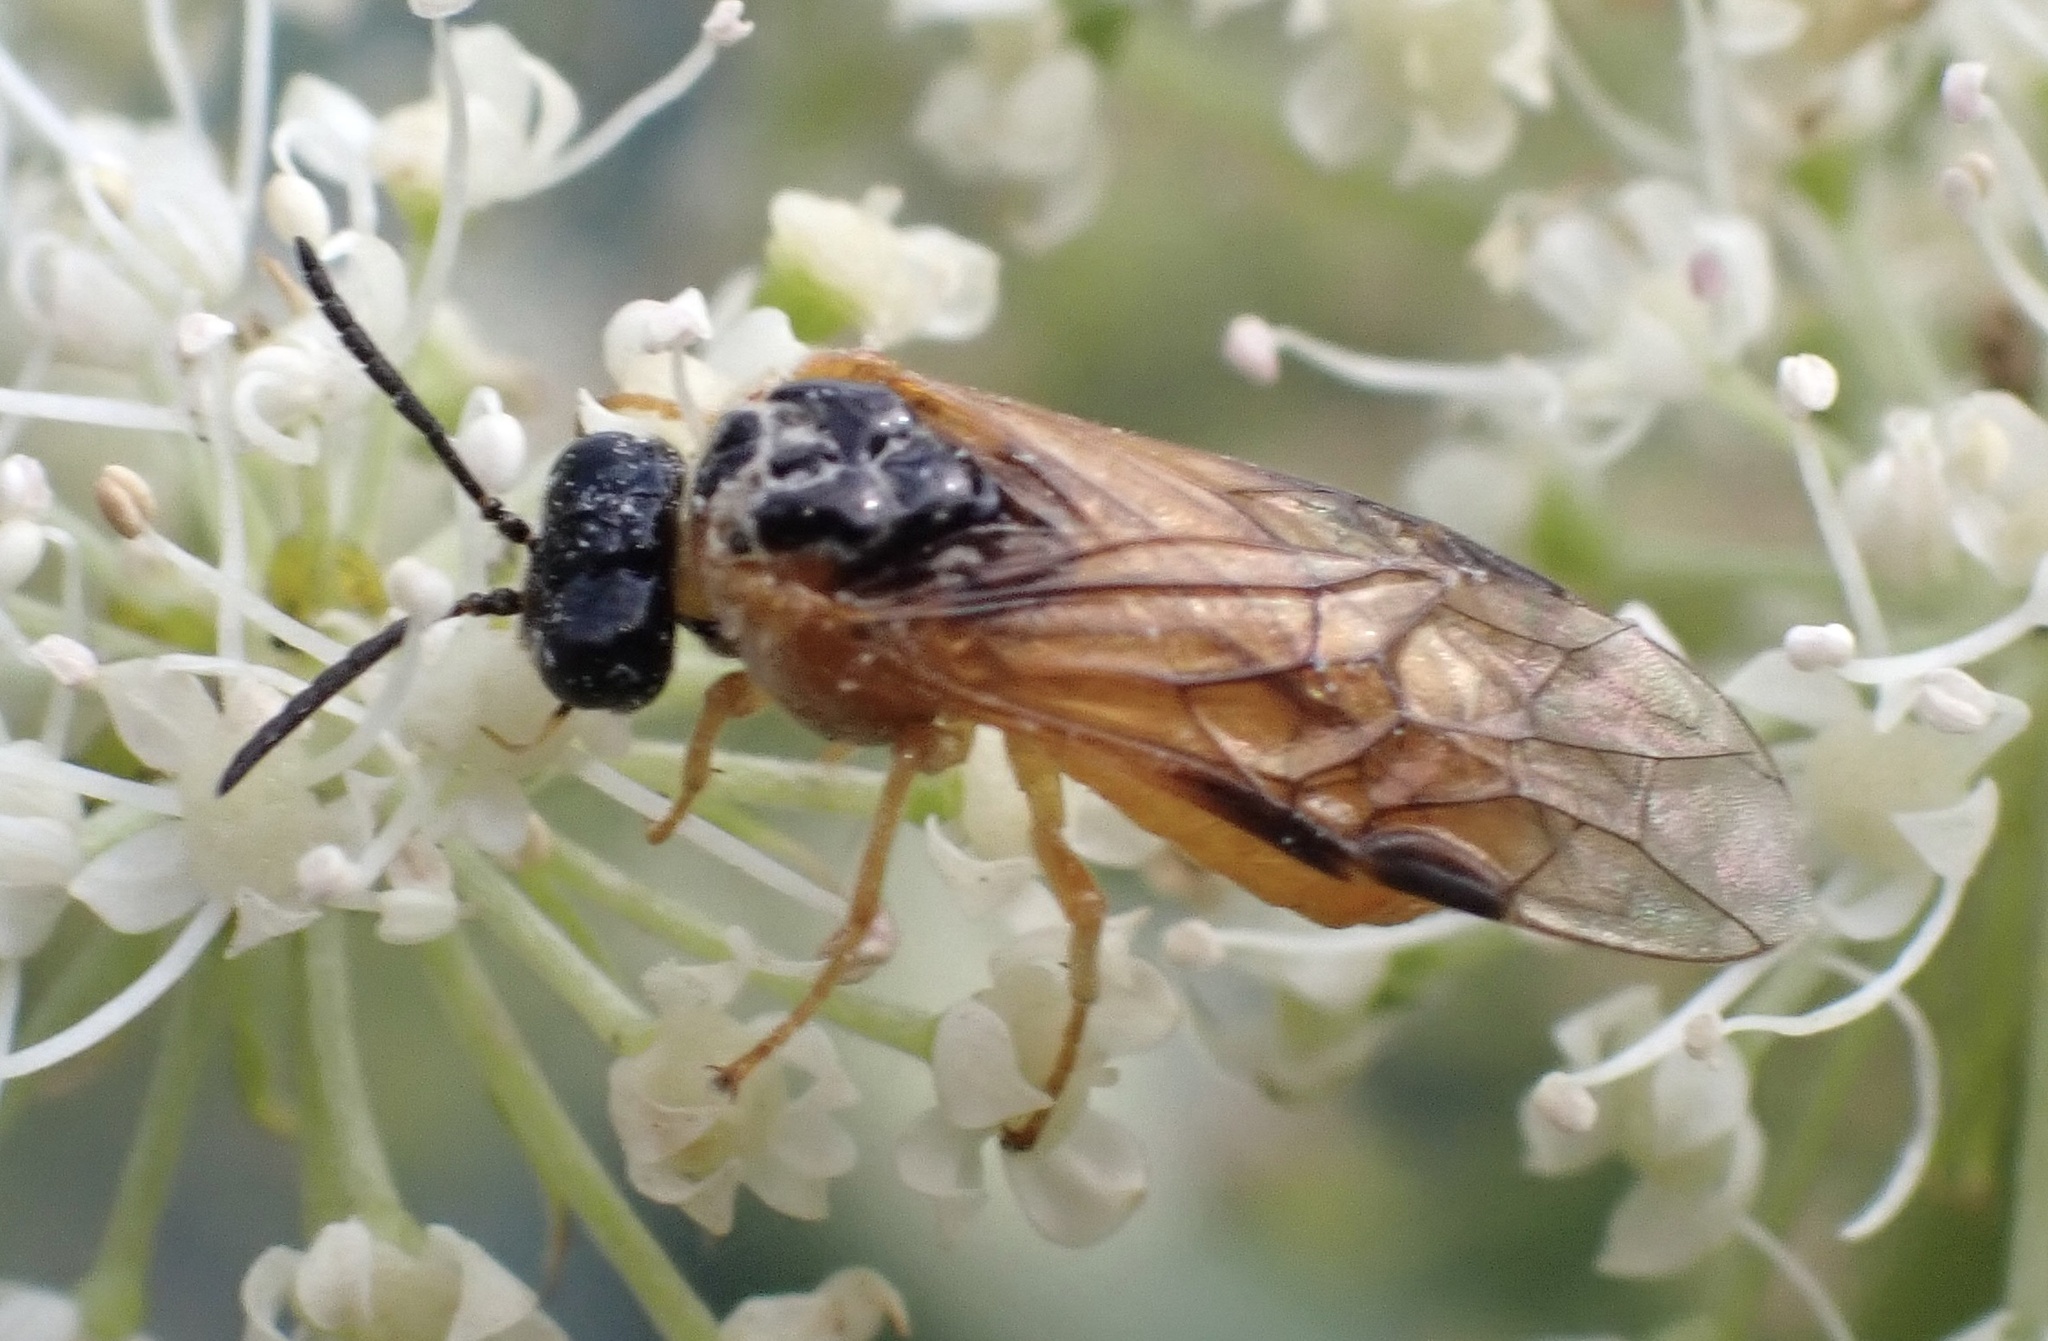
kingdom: Animalia
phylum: Arthropoda
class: Insecta
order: Hymenoptera
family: Tenthredinidae
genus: Selandria
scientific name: Selandria serva
